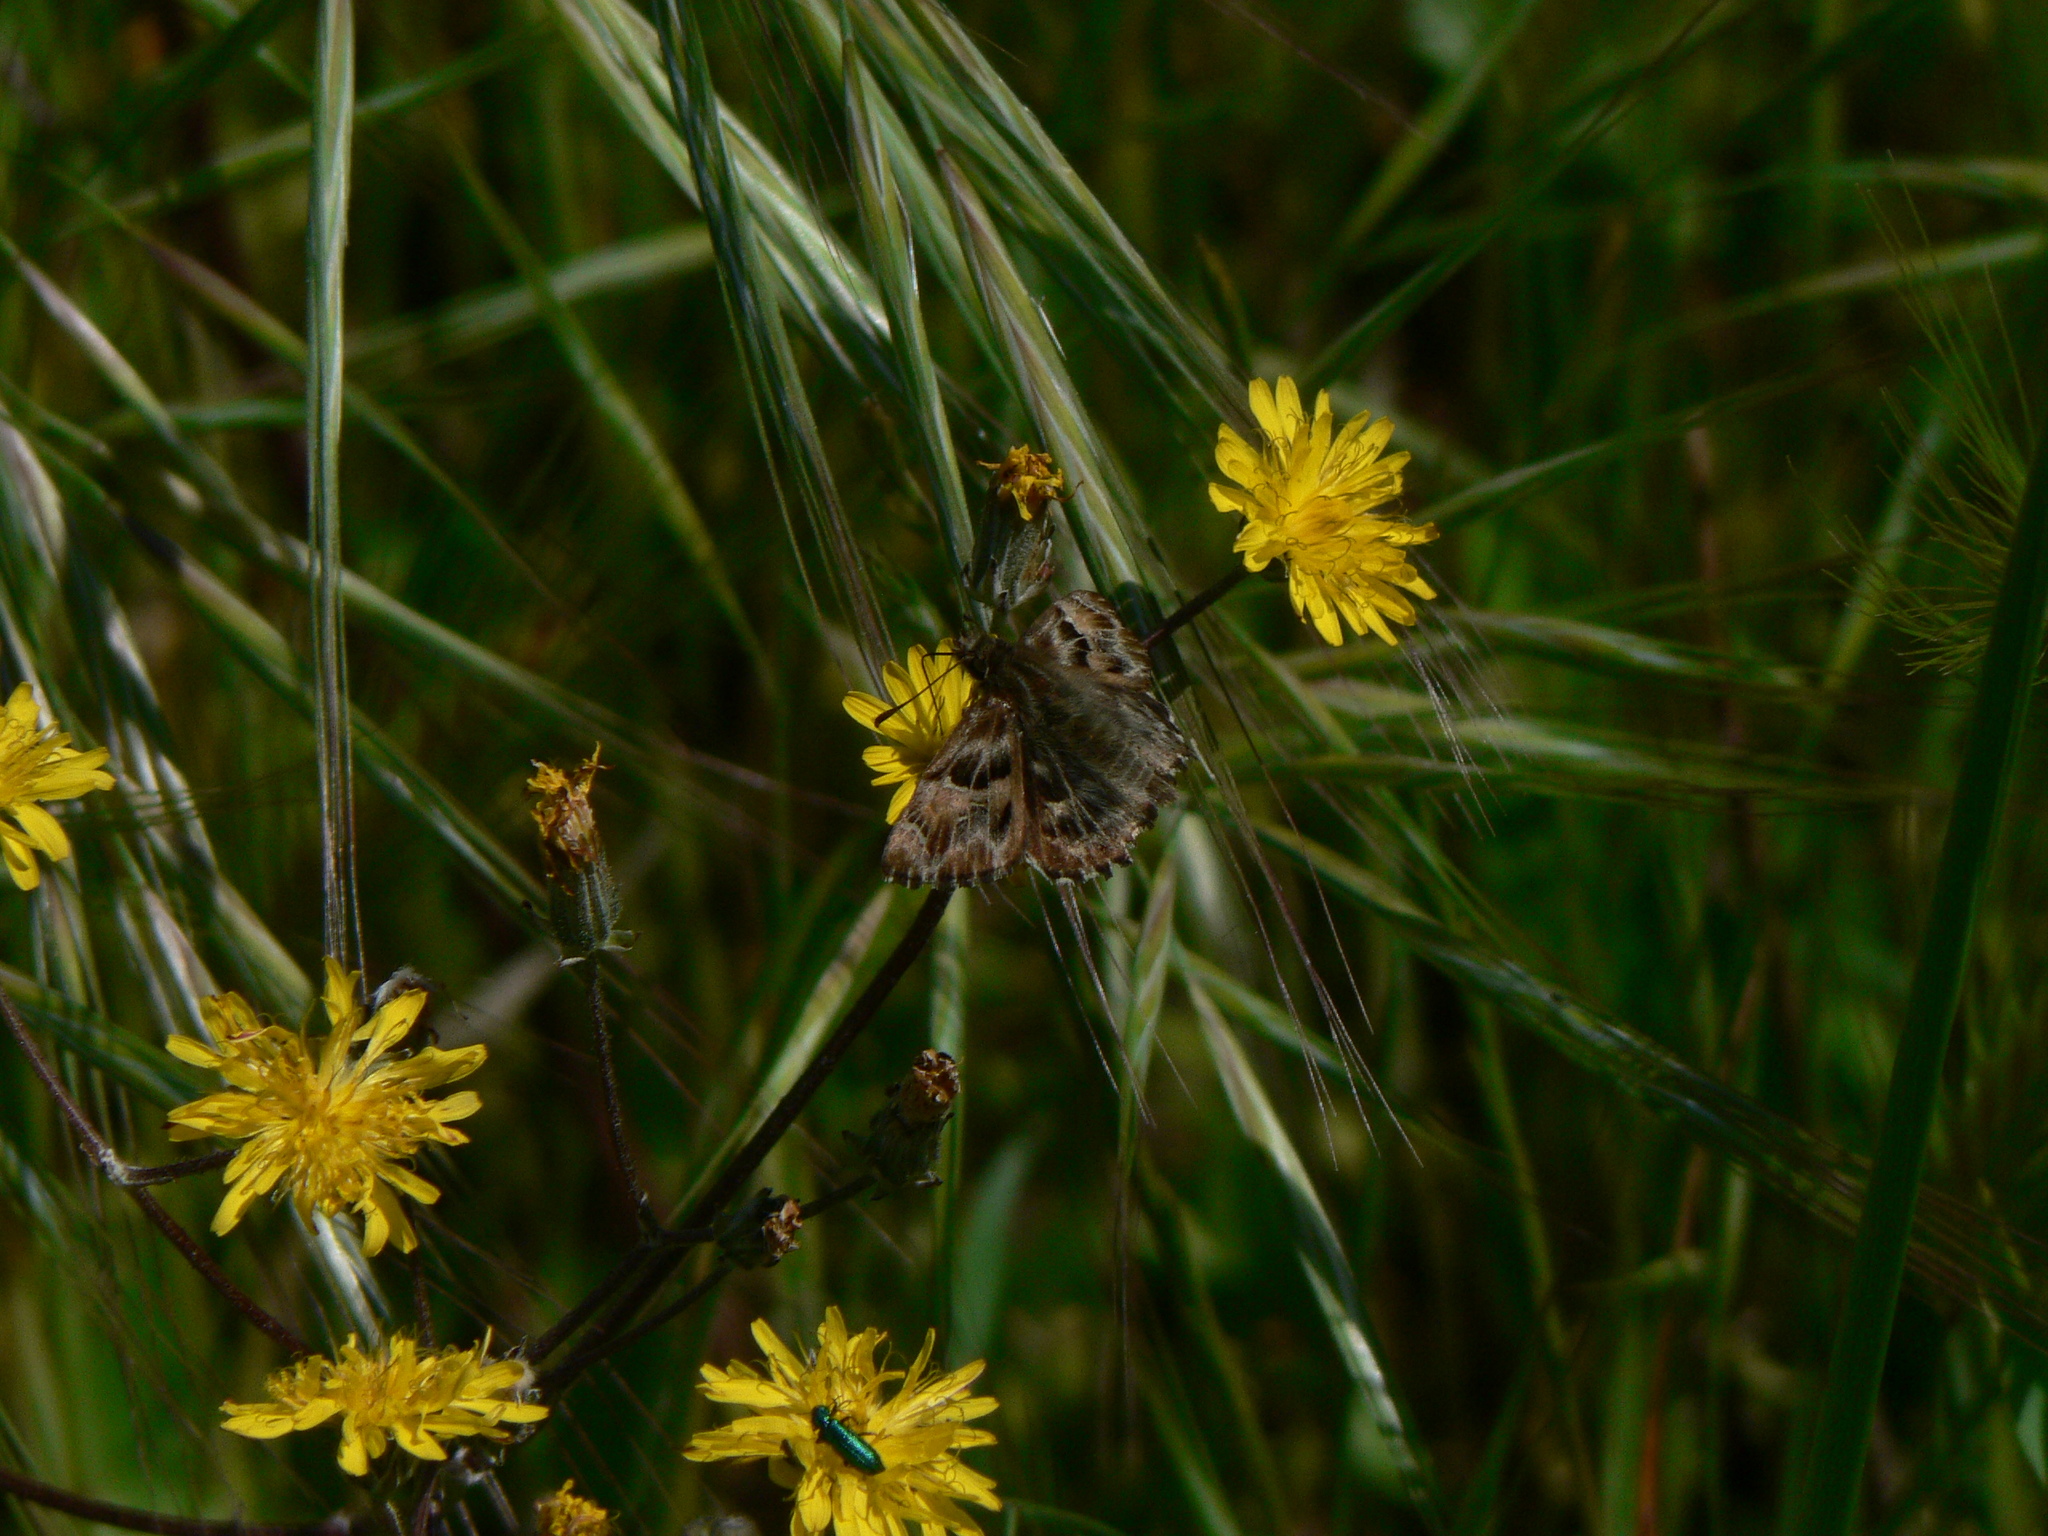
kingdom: Animalia
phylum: Arthropoda
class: Insecta
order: Lepidoptera
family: Hesperiidae
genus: Carcharodus
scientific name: Carcharodus alceae
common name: Mallow skipper
